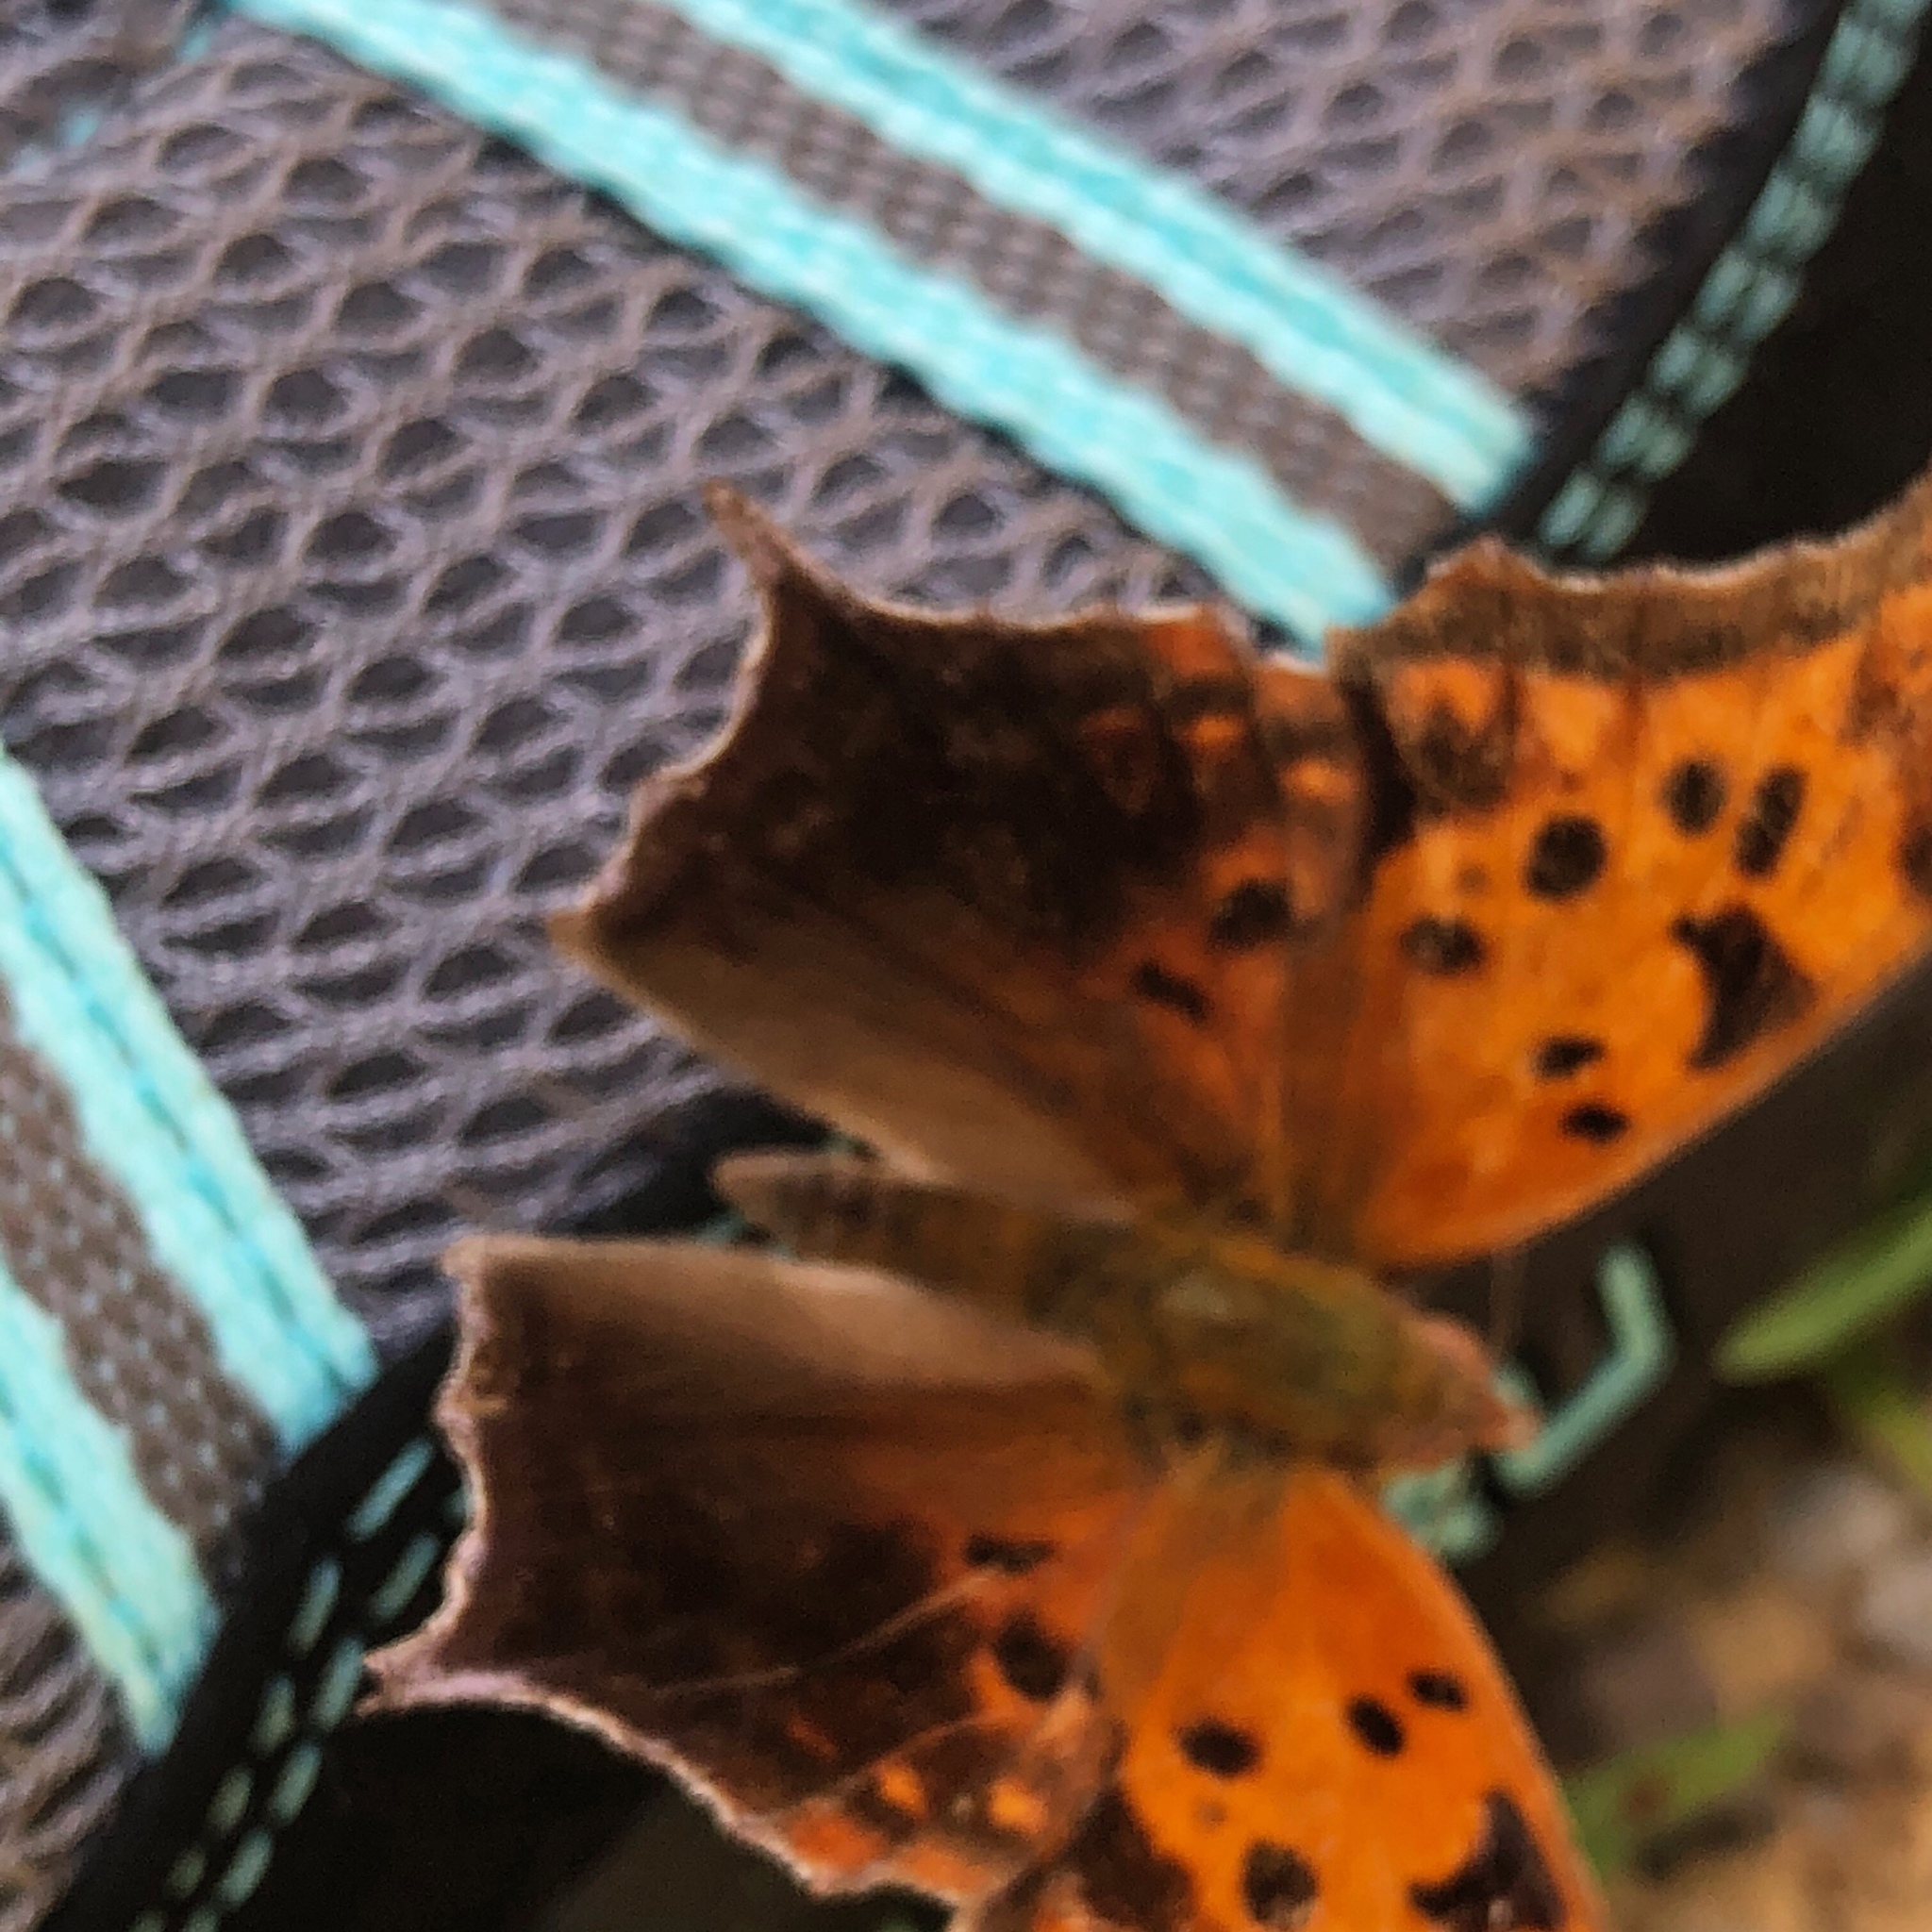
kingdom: Animalia
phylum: Arthropoda
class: Insecta
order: Lepidoptera
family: Nymphalidae
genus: Polygonia
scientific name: Polygonia interrogationis
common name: Question mark
